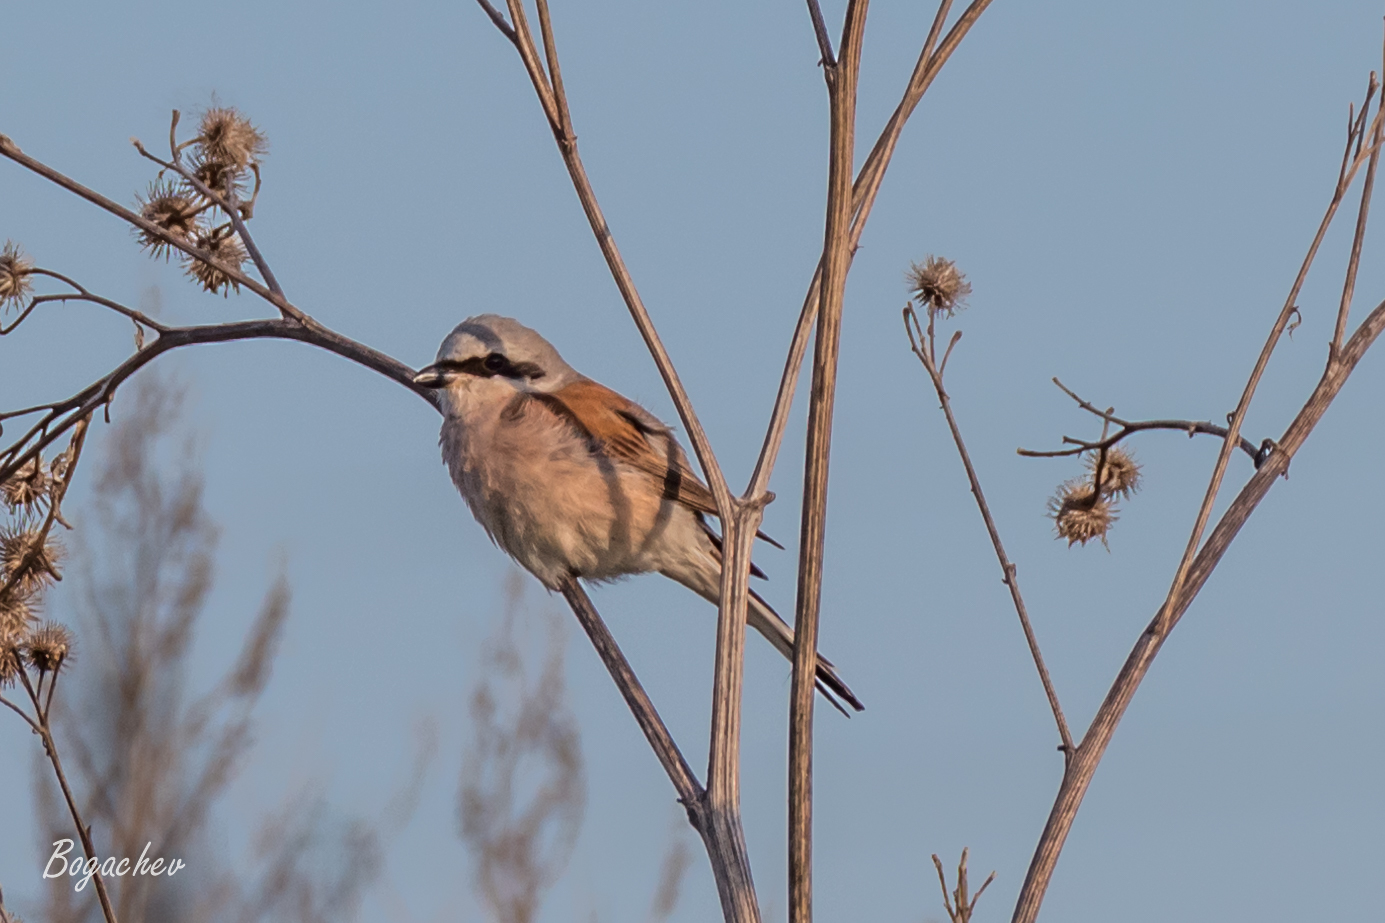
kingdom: Animalia
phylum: Chordata
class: Aves
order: Passeriformes
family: Laniidae
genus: Lanius
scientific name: Lanius collurio
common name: Red-backed shrike
